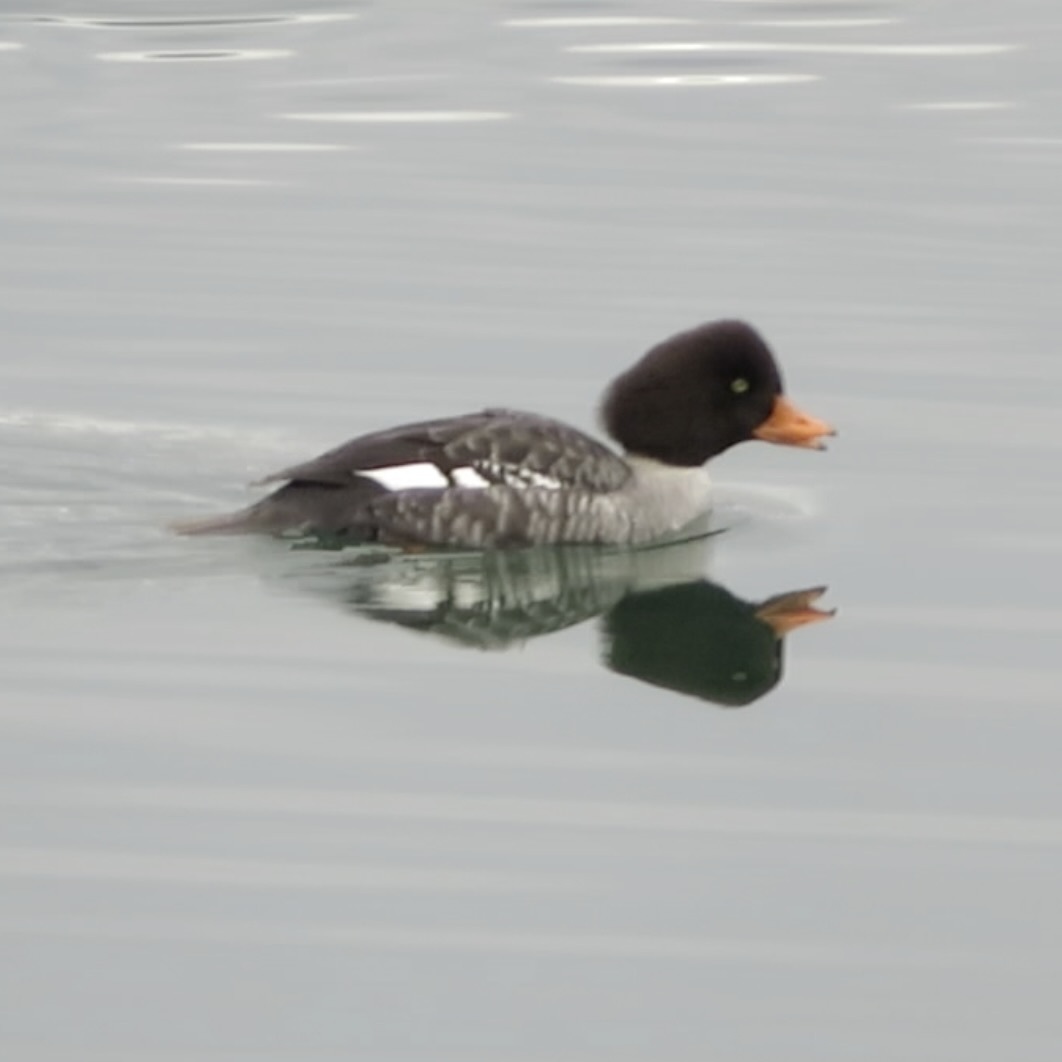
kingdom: Animalia
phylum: Chordata
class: Aves
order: Anseriformes
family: Anatidae
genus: Bucephala
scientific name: Bucephala islandica
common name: Barrow's goldeneye
